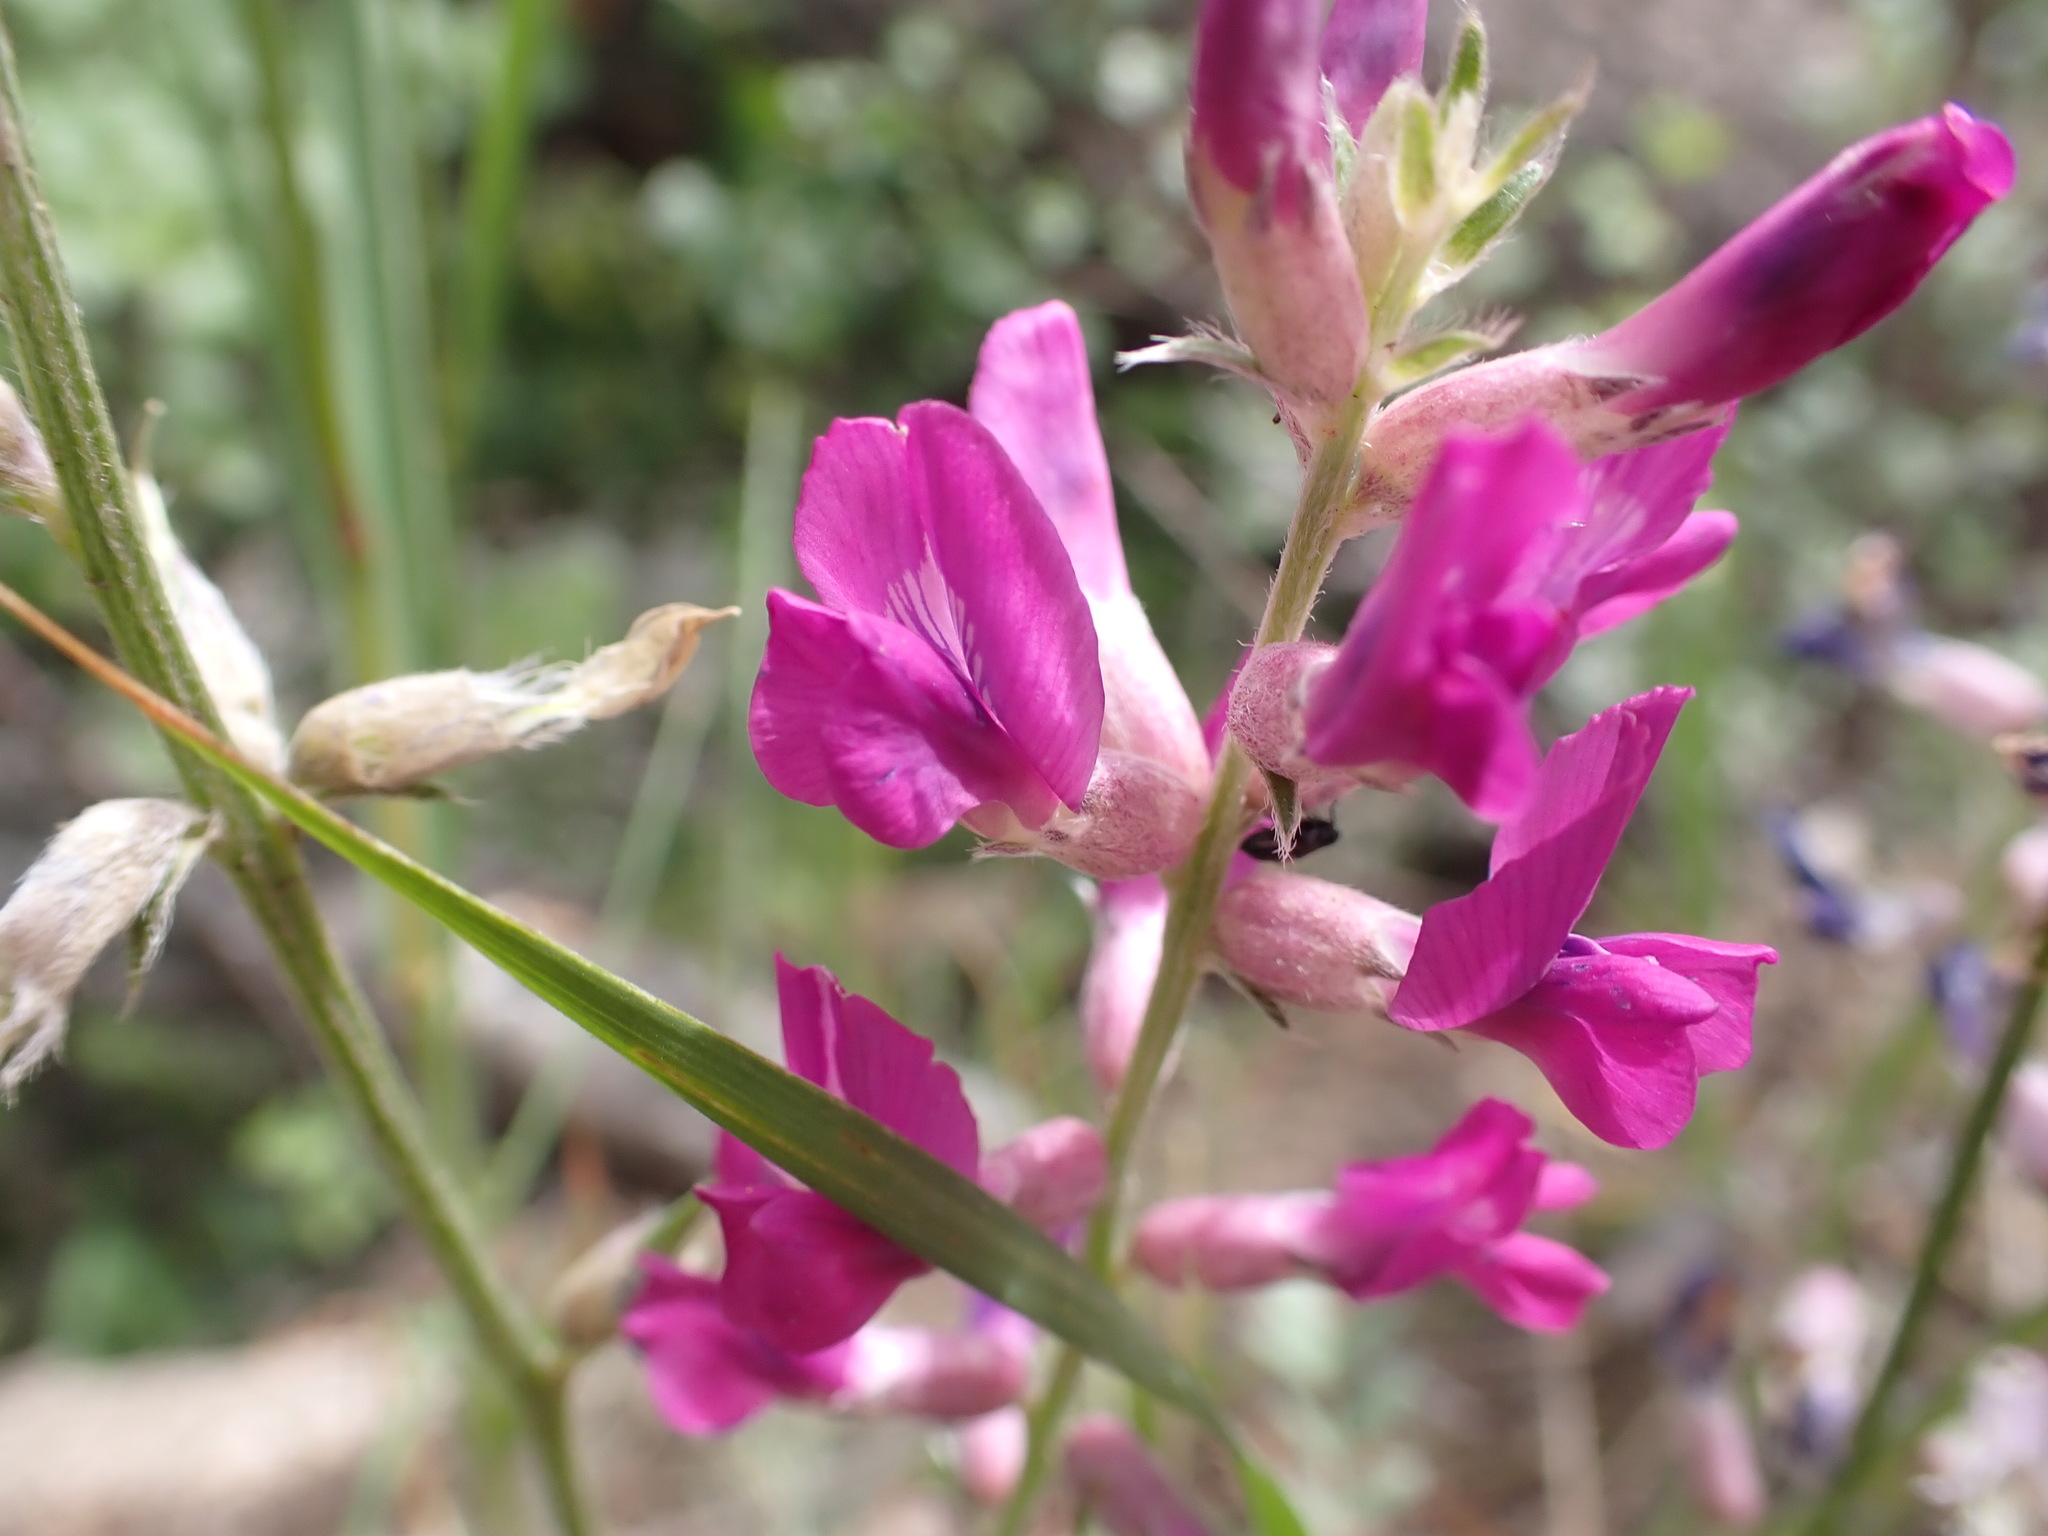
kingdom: Plantae
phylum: Tracheophyta
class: Magnoliopsida
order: Fabales
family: Fabaceae
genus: Oxytropis
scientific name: Oxytropis lambertii
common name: Purple locoweed
